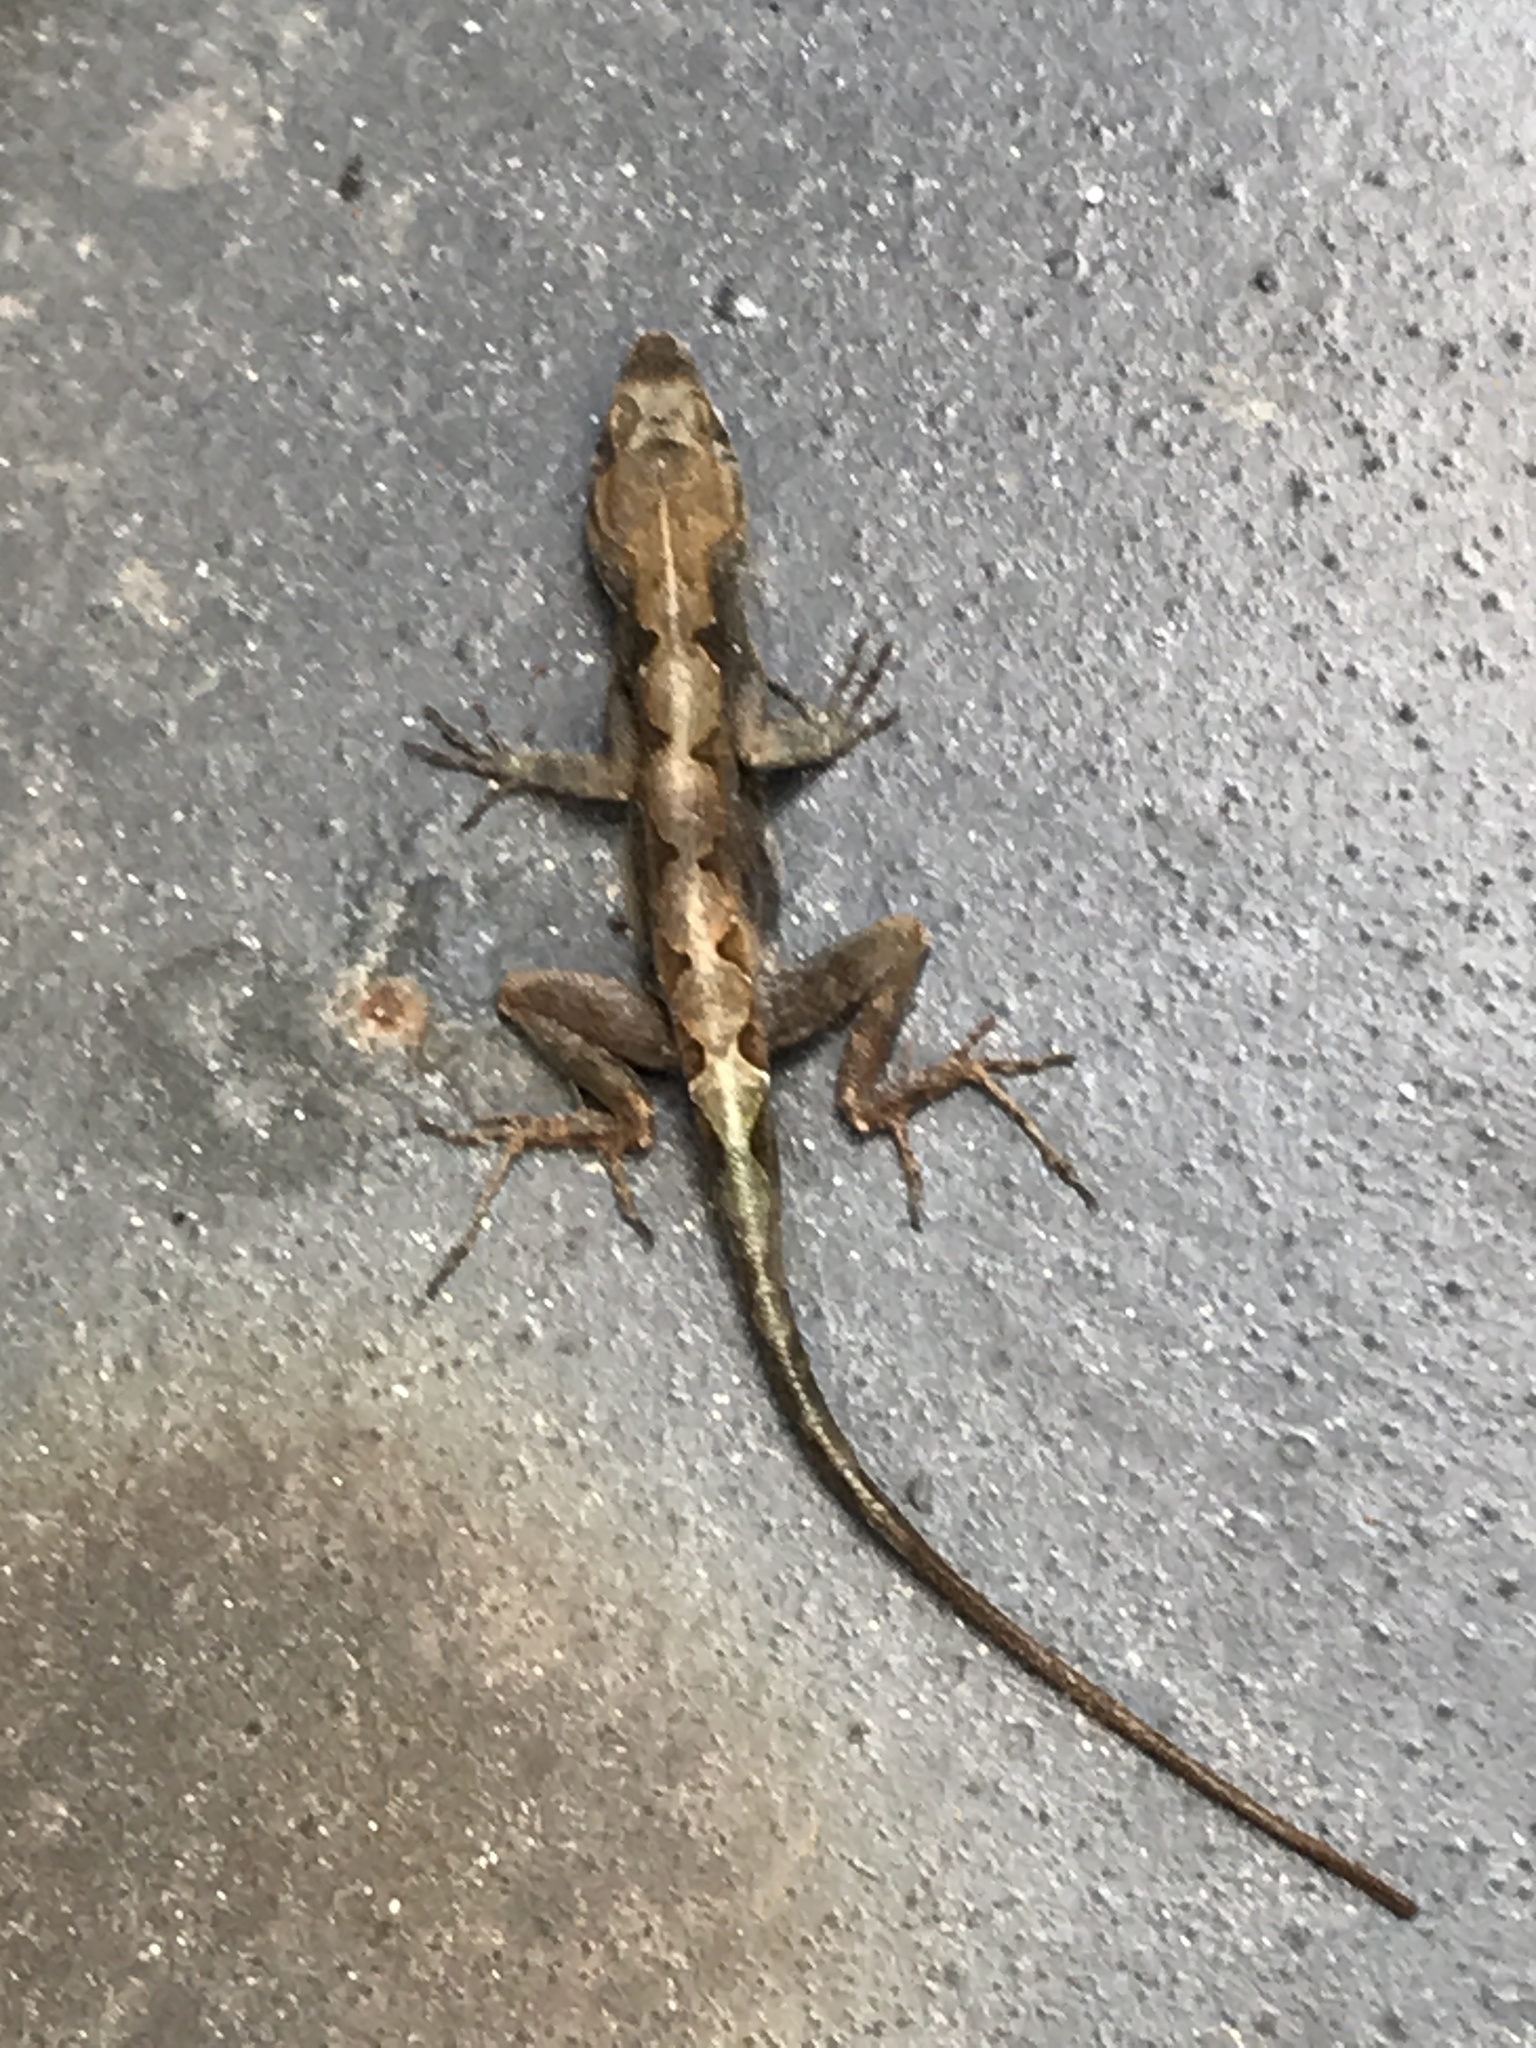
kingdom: Animalia
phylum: Chordata
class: Squamata
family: Dactyloidae
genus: Anolis
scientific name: Anolis sagrei
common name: Brown anole
